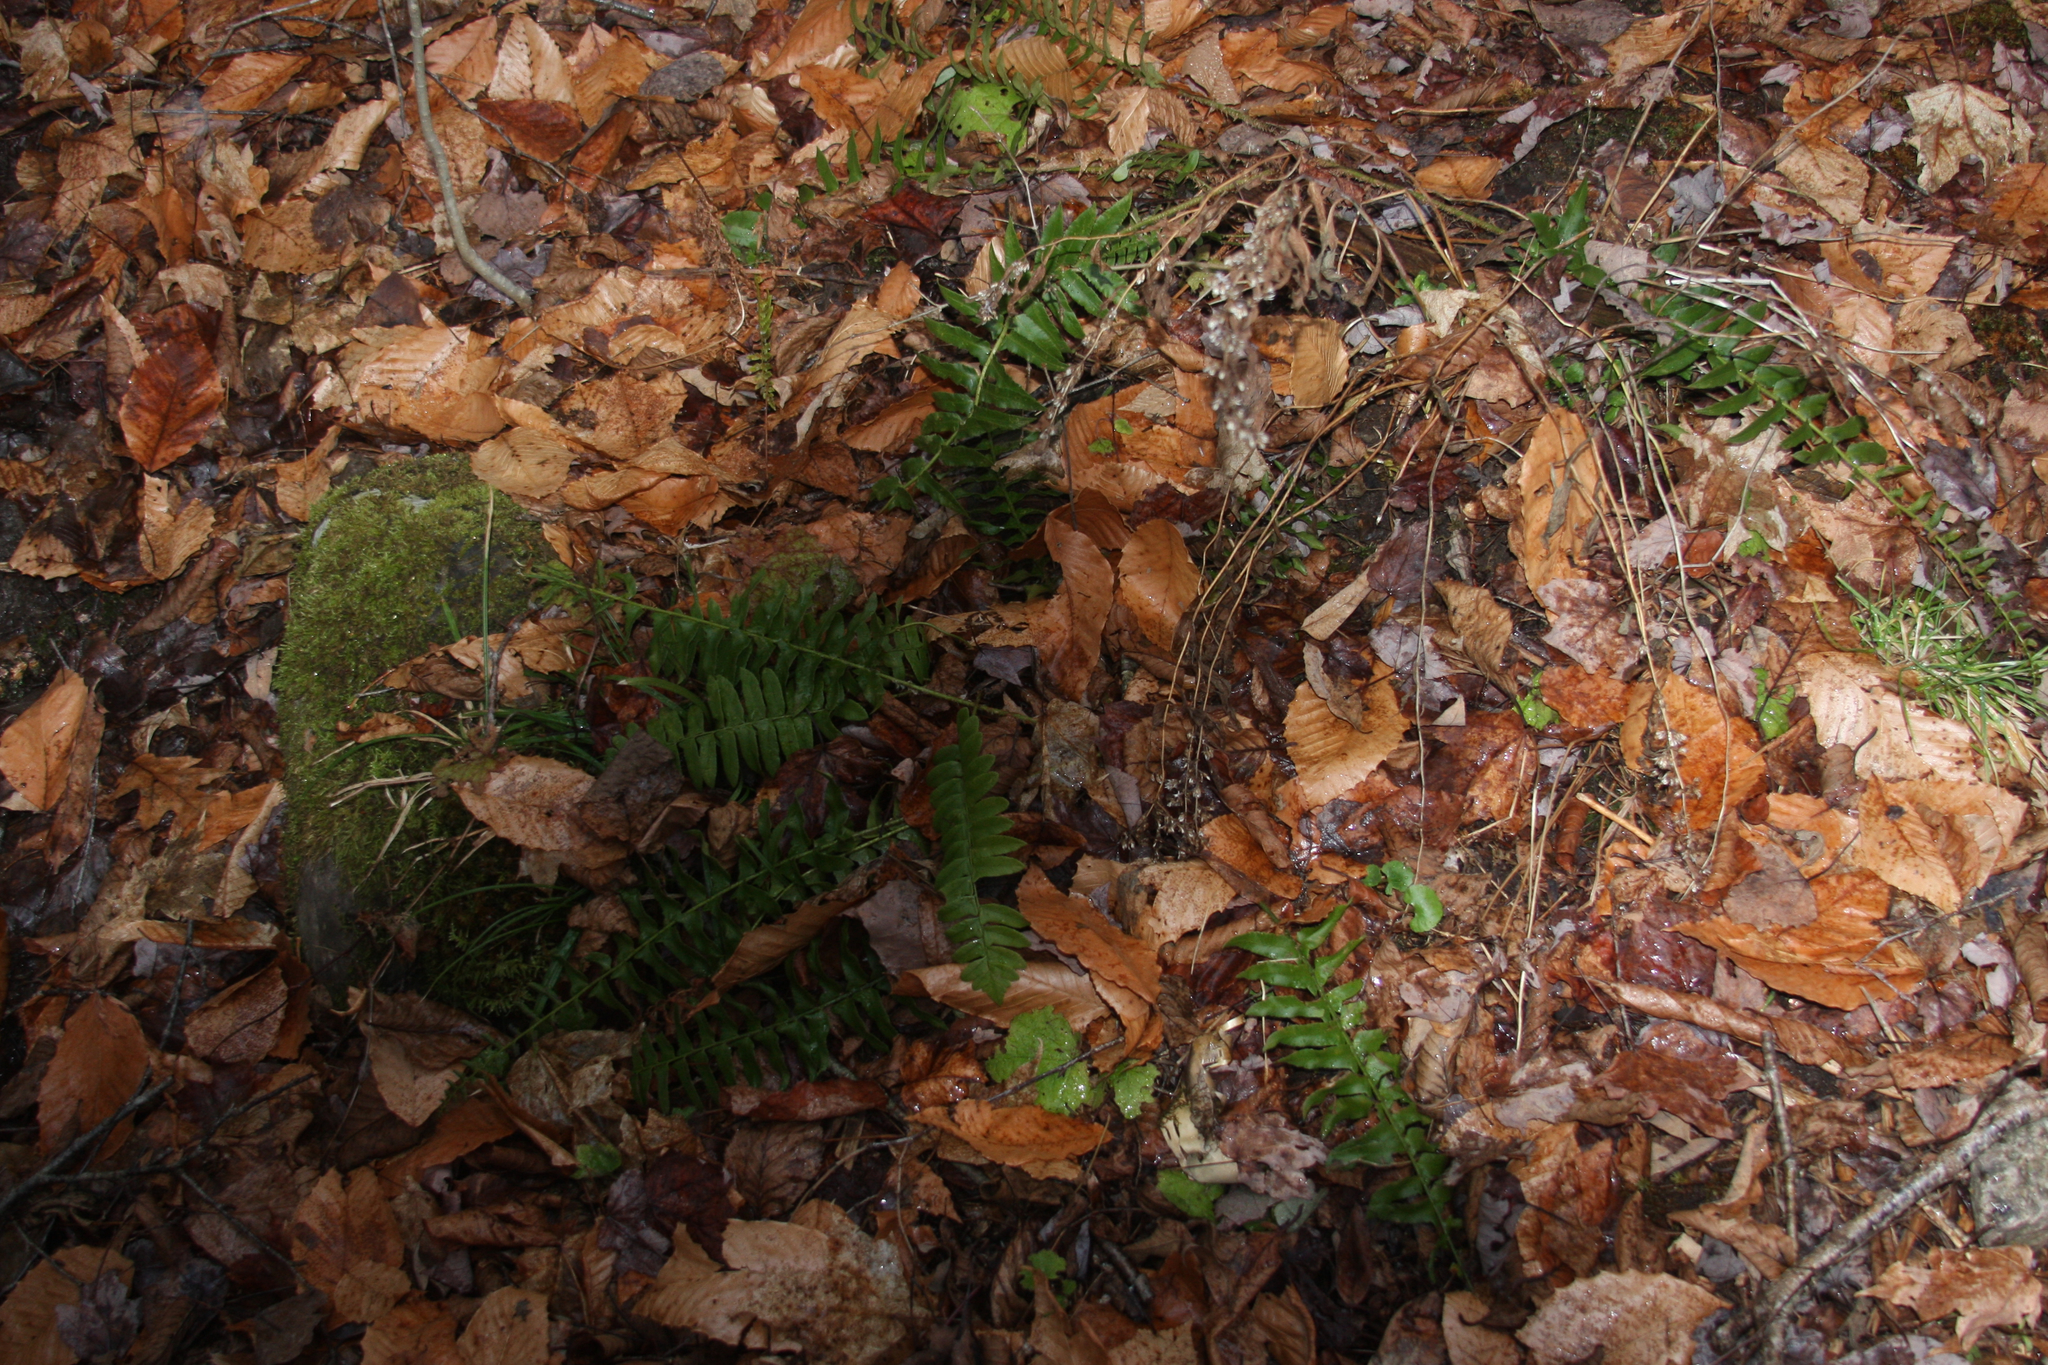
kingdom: Plantae
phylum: Tracheophyta
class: Polypodiopsida
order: Polypodiales
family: Dryopteridaceae
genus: Polystichum
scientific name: Polystichum acrostichoides
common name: Christmas fern
